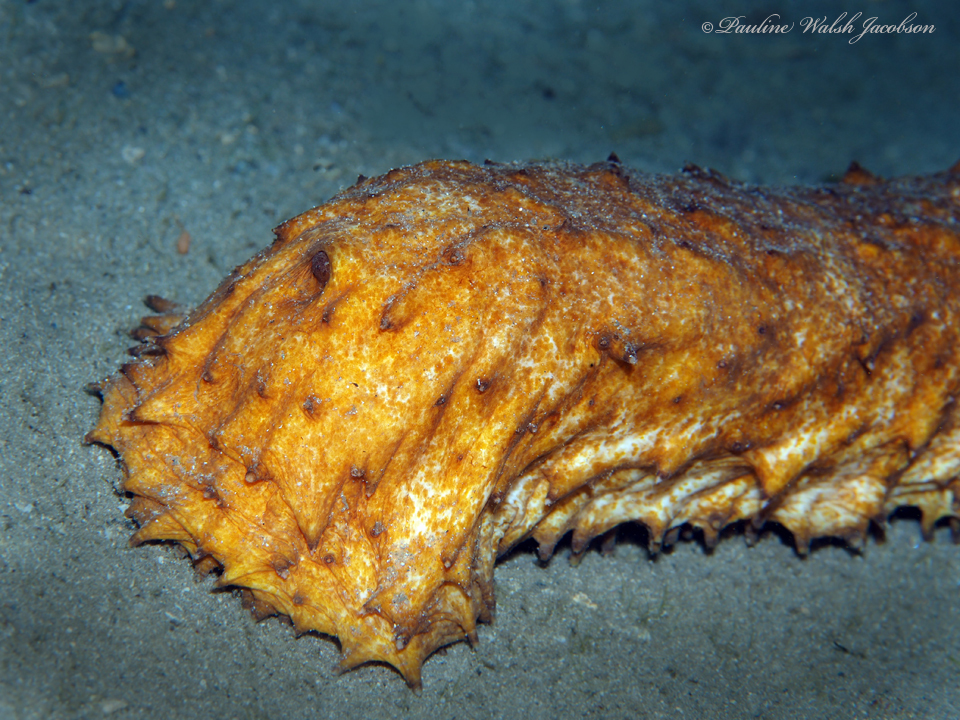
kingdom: Animalia
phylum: Echinodermata
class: Holothuroidea
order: Holothuriida
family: Holothuriidae
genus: Holothuria
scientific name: Holothuria thomasi
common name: Tiger tail sea cocumber
